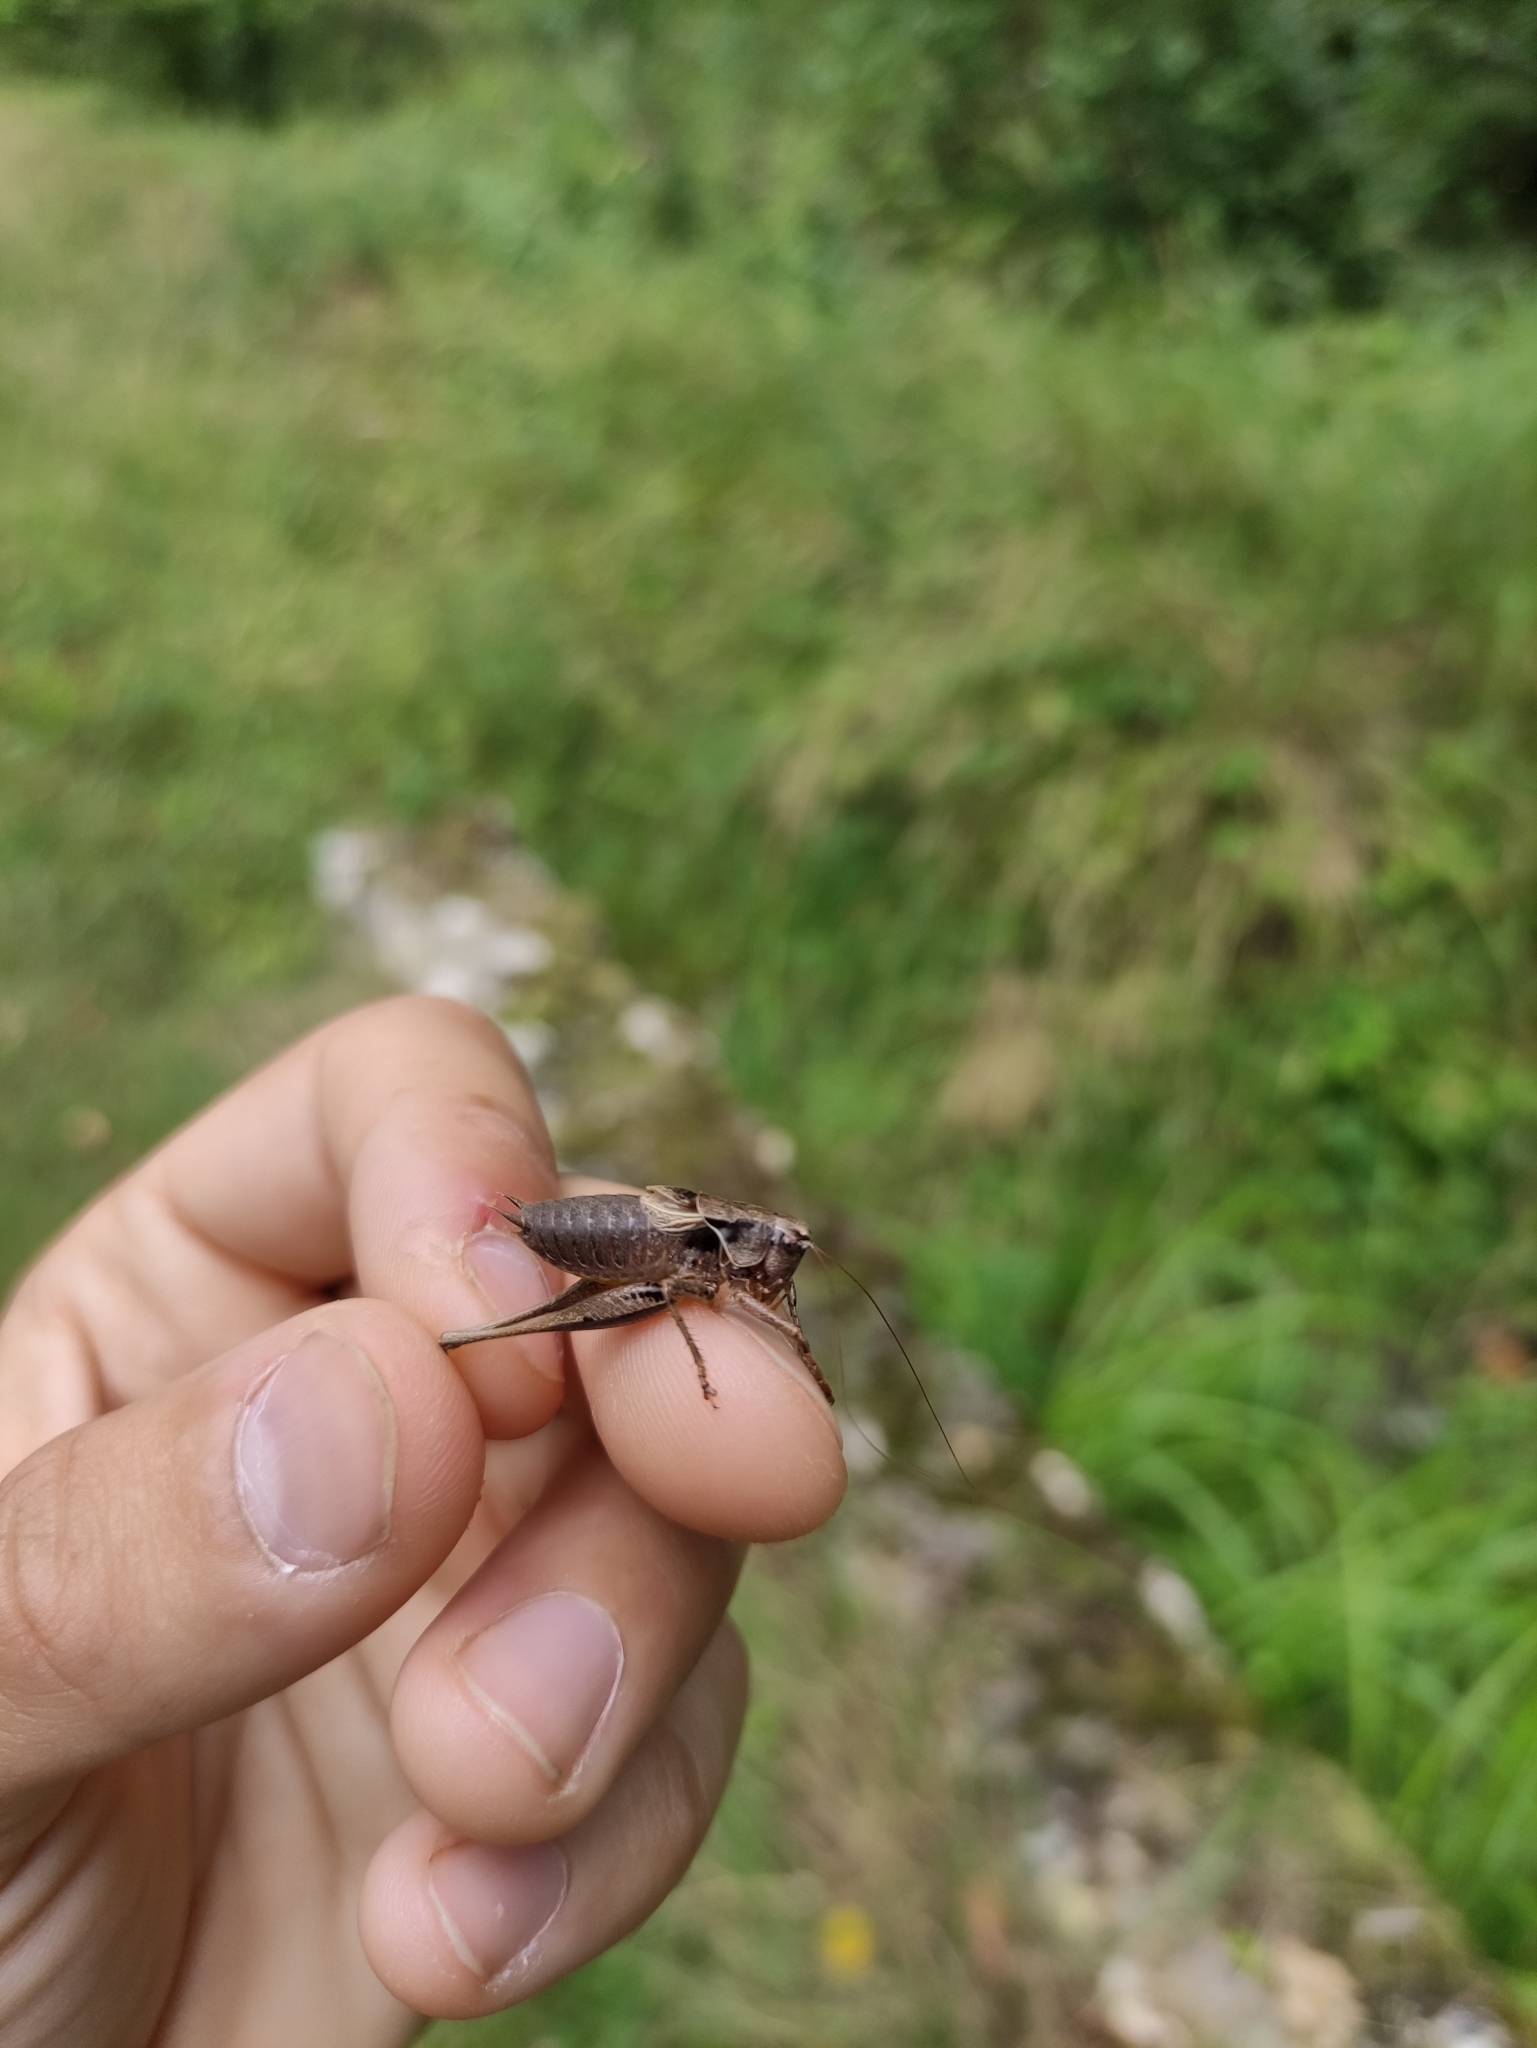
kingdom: Animalia
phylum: Arthropoda
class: Insecta
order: Orthoptera
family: Tettigoniidae
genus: Pholidoptera
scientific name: Pholidoptera griseoaptera
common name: Dark bush-cricket
